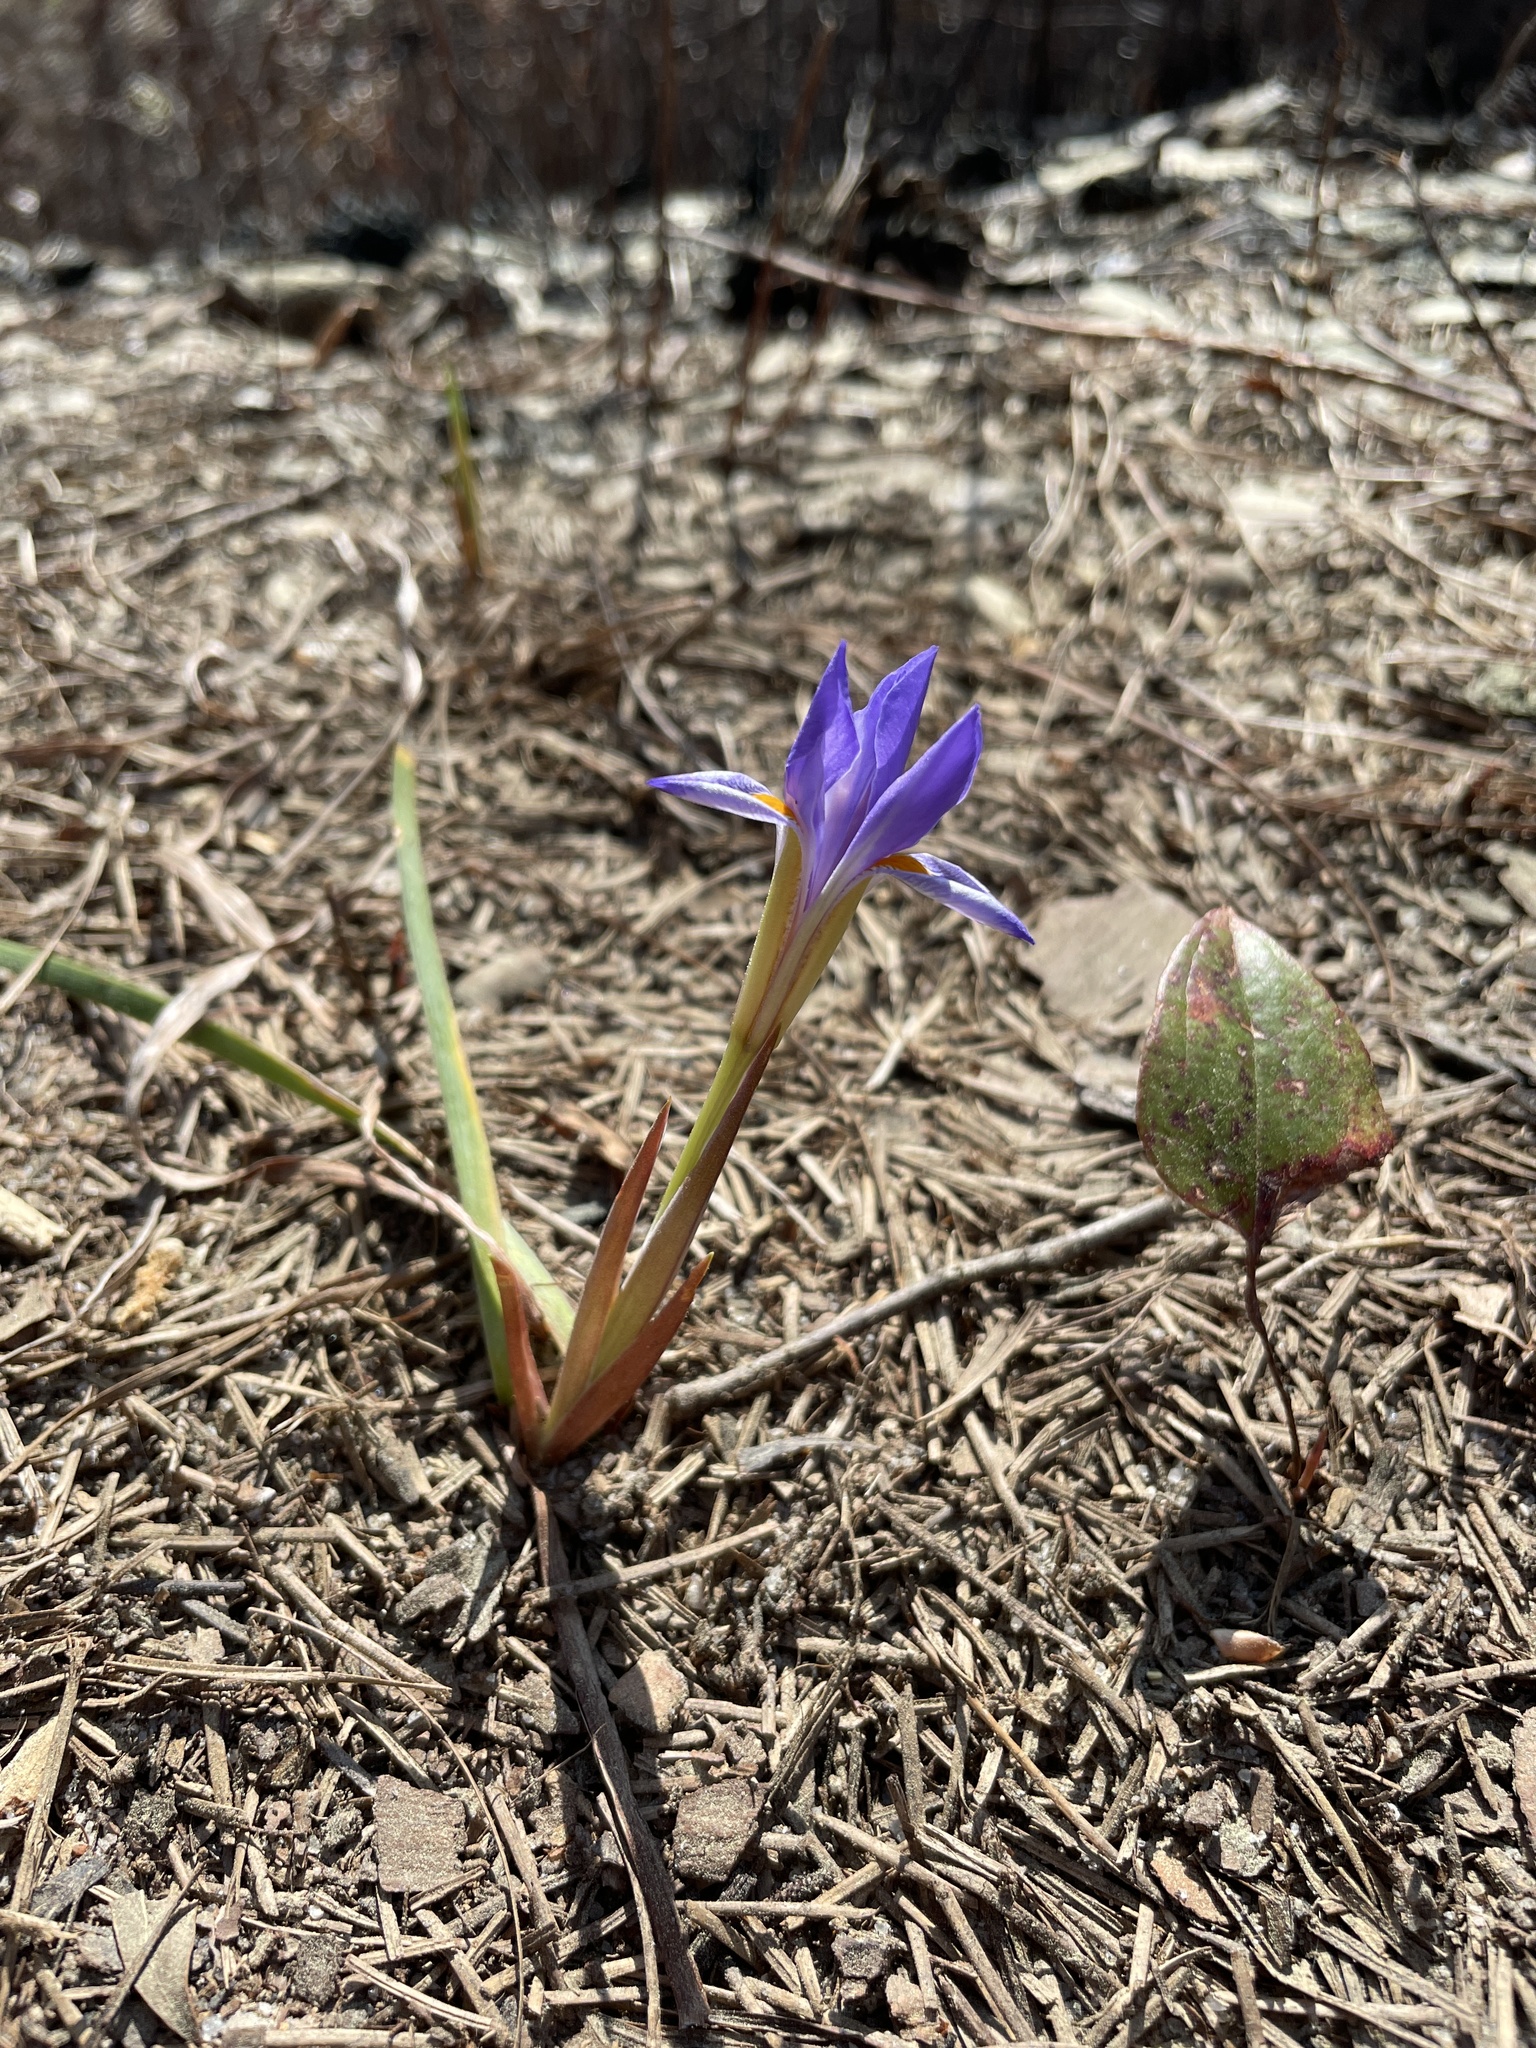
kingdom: Plantae
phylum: Tracheophyta
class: Liliopsida
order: Asparagales
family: Iridaceae
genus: Iris
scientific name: Iris verna
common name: Dwarf iris
